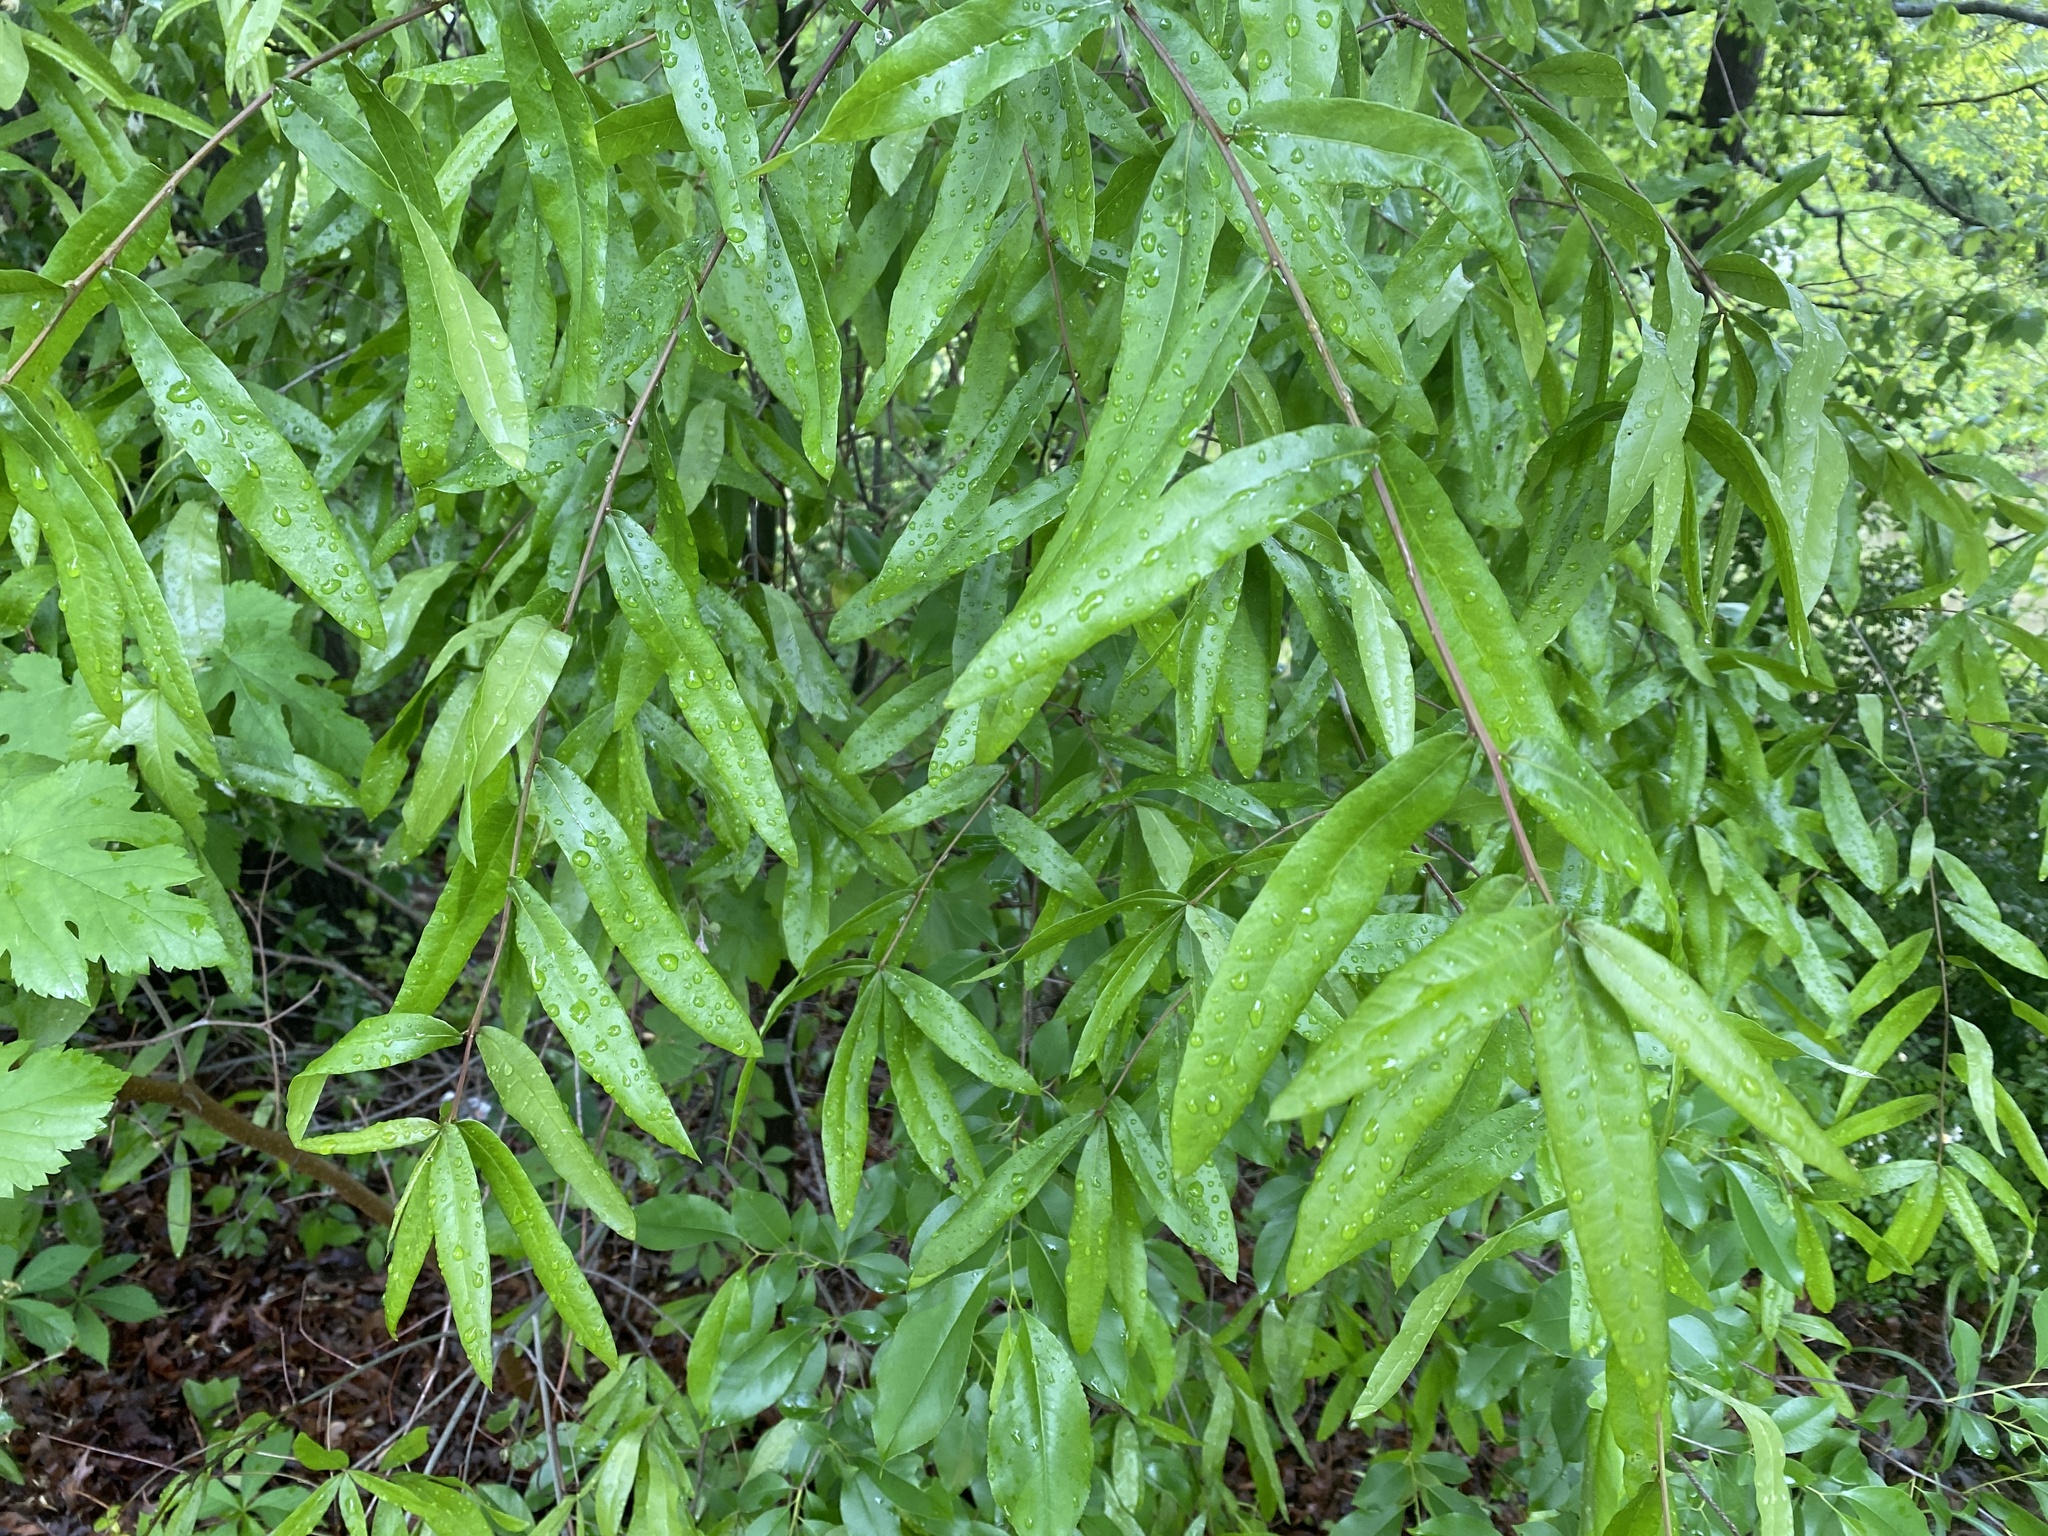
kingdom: Plantae
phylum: Tracheophyta
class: Magnoliopsida
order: Fagales
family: Fagaceae
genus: Quercus
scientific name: Quercus phellos
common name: Willow oak
